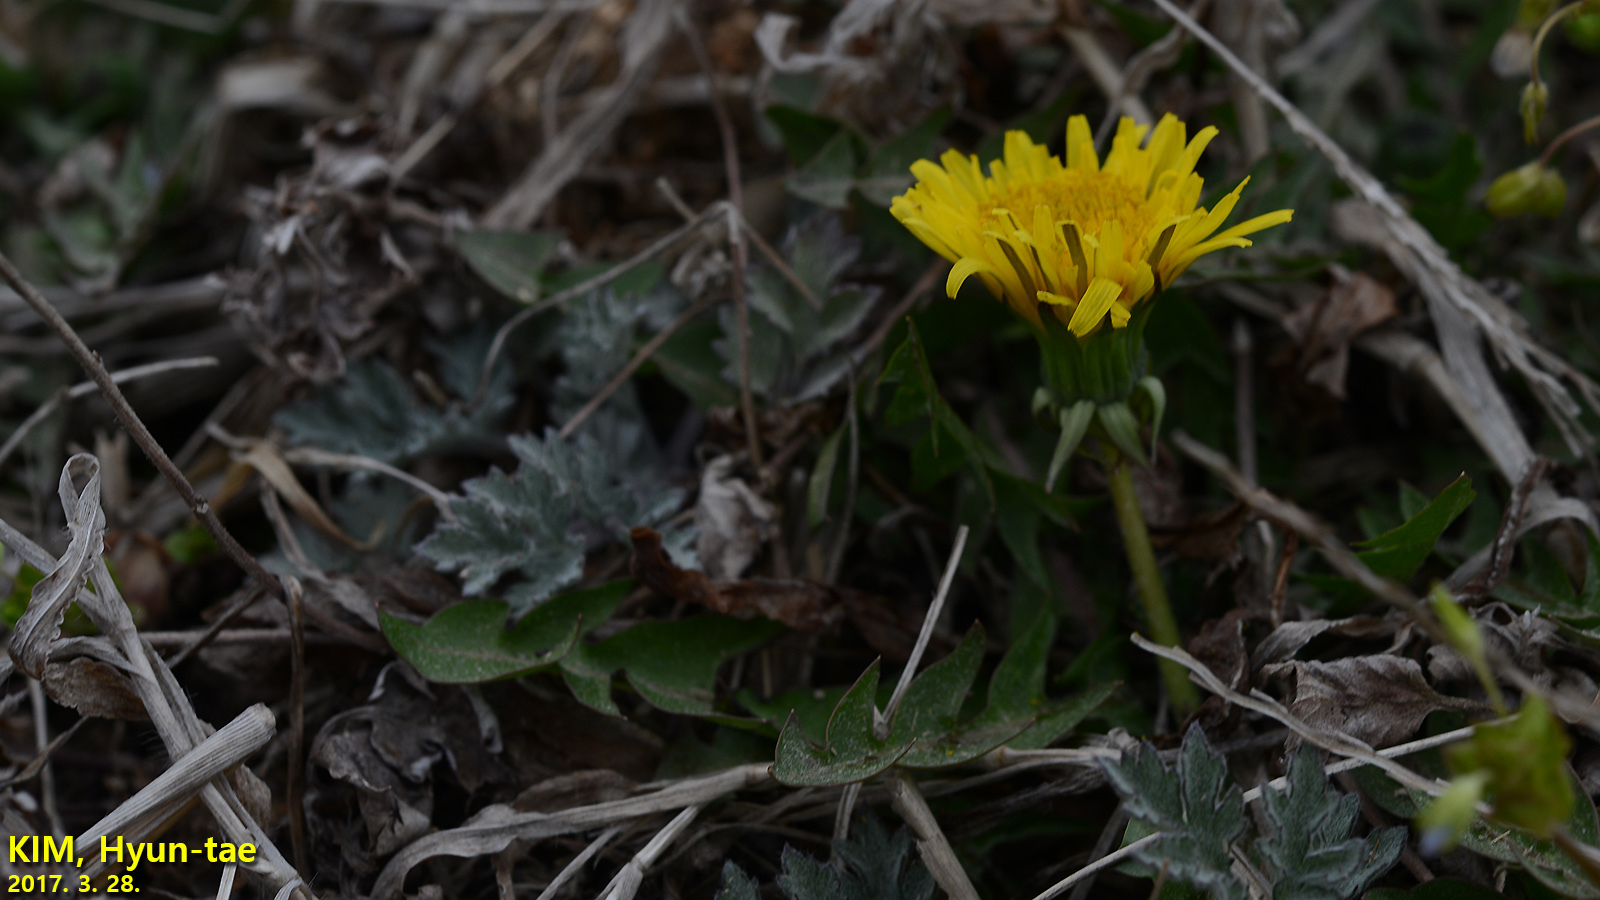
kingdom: Plantae
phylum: Tracheophyta
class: Magnoliopsida
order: Asterales
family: Asteraceae
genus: Taraxacum
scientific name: Taraxacum officinale
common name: Common dandelion
